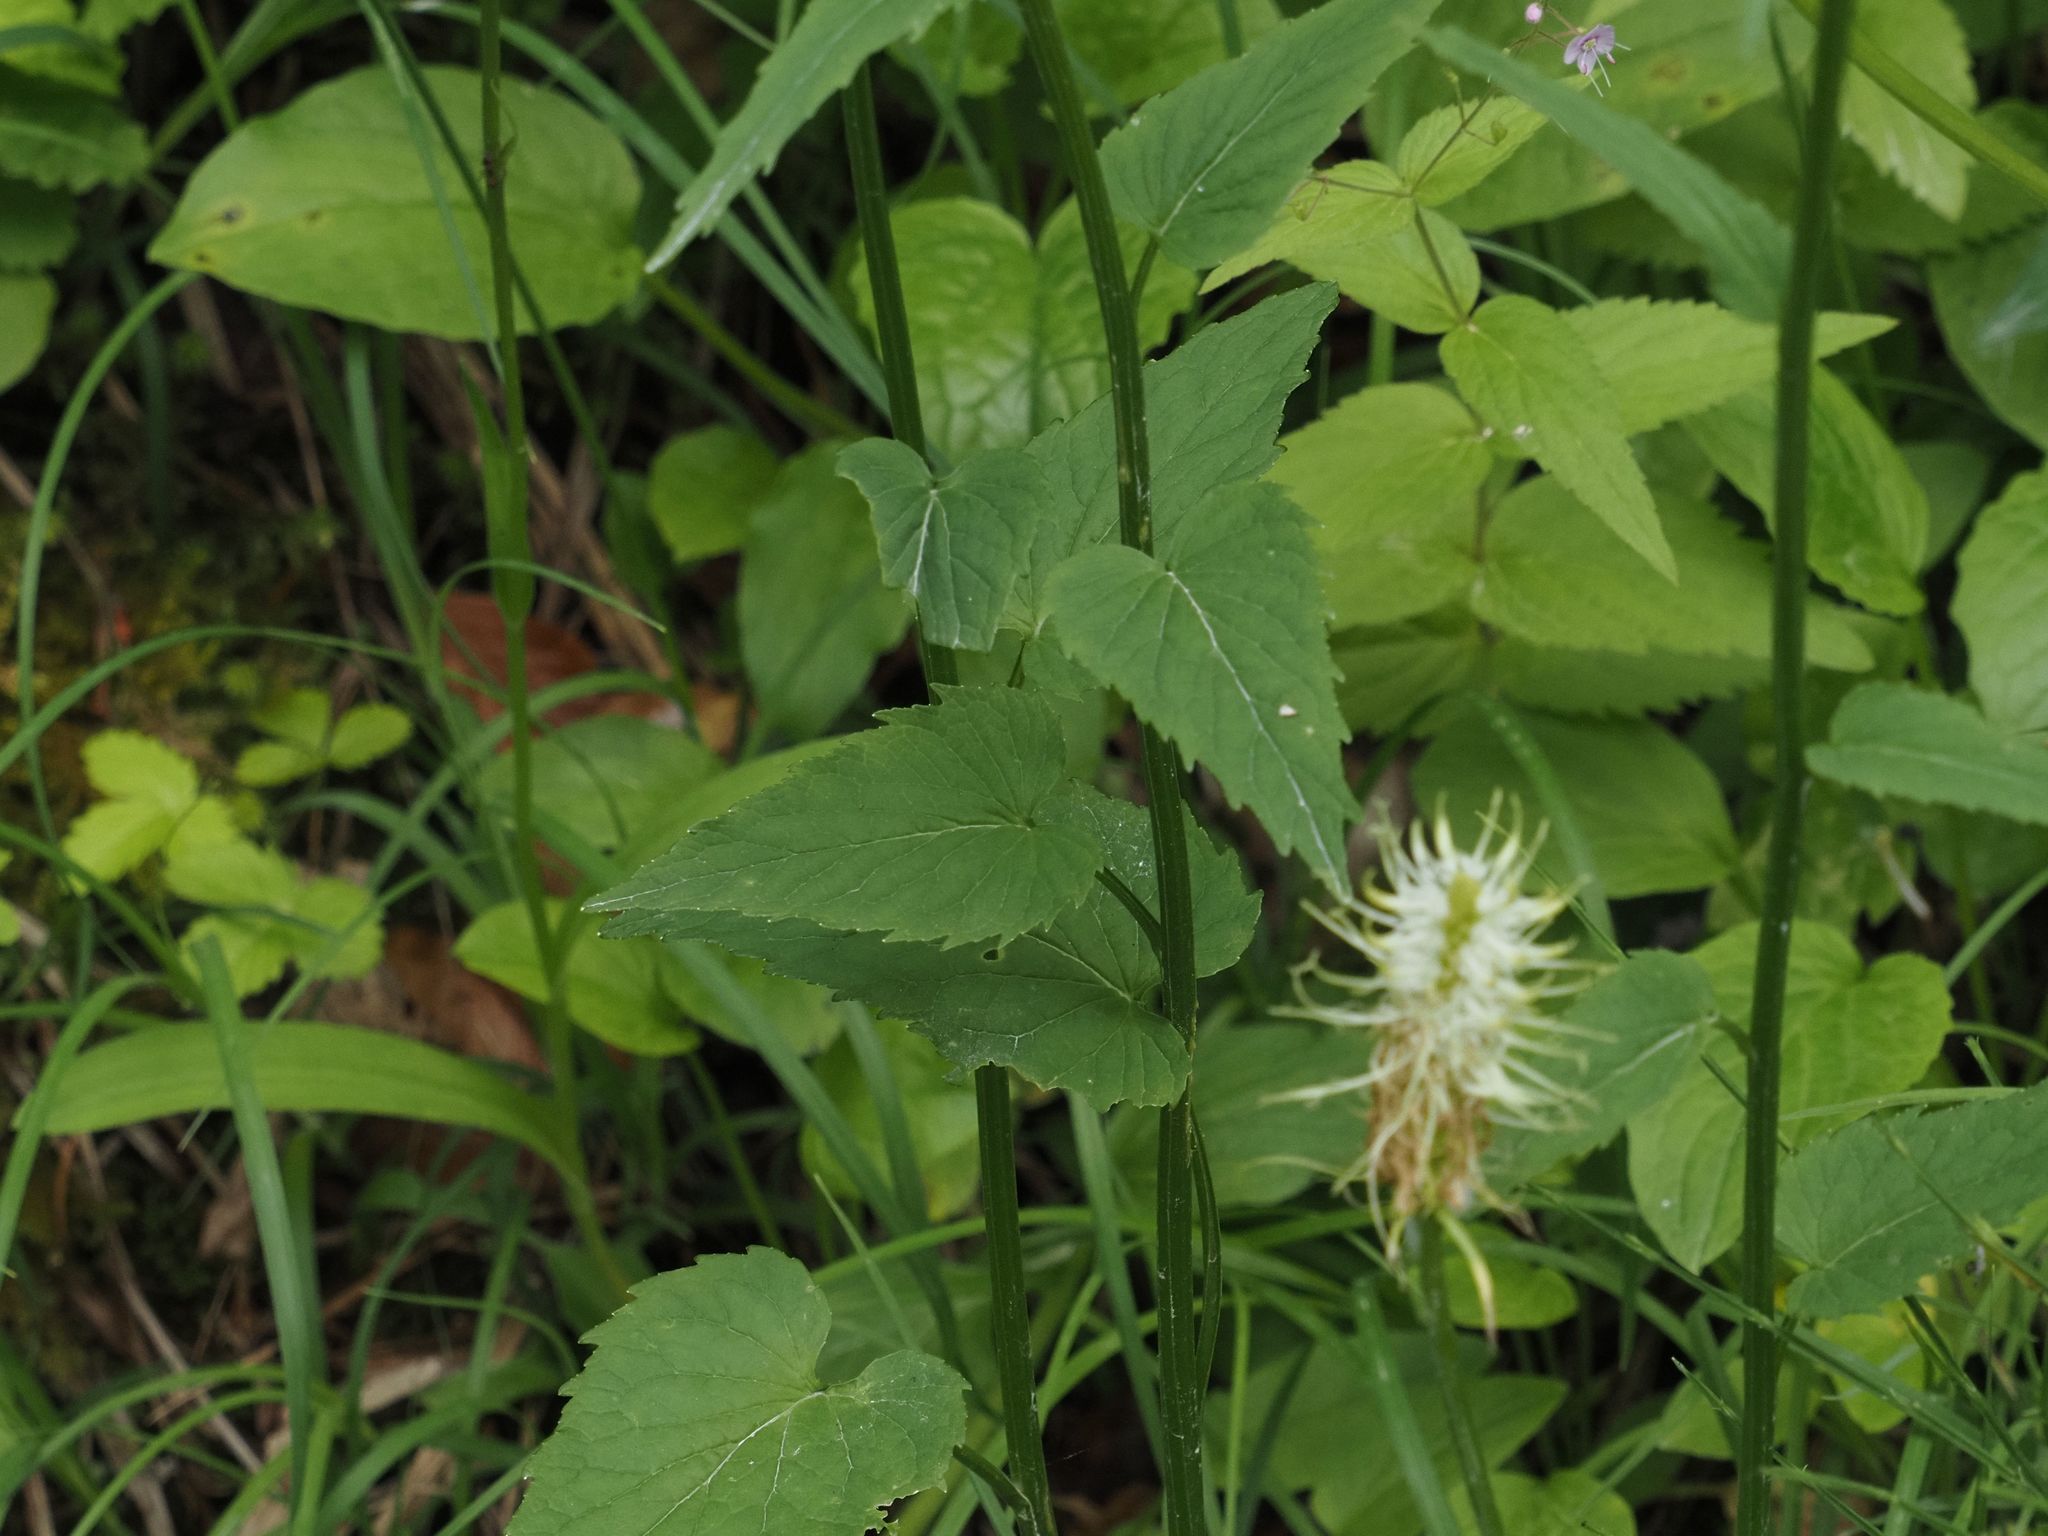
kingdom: Plantae
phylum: Tracheophyta
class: Magnoliopsida
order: Asterales
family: Campanulaceae
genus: Phyteuma
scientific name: Phyteuma spicatum
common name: Spiked rampion
